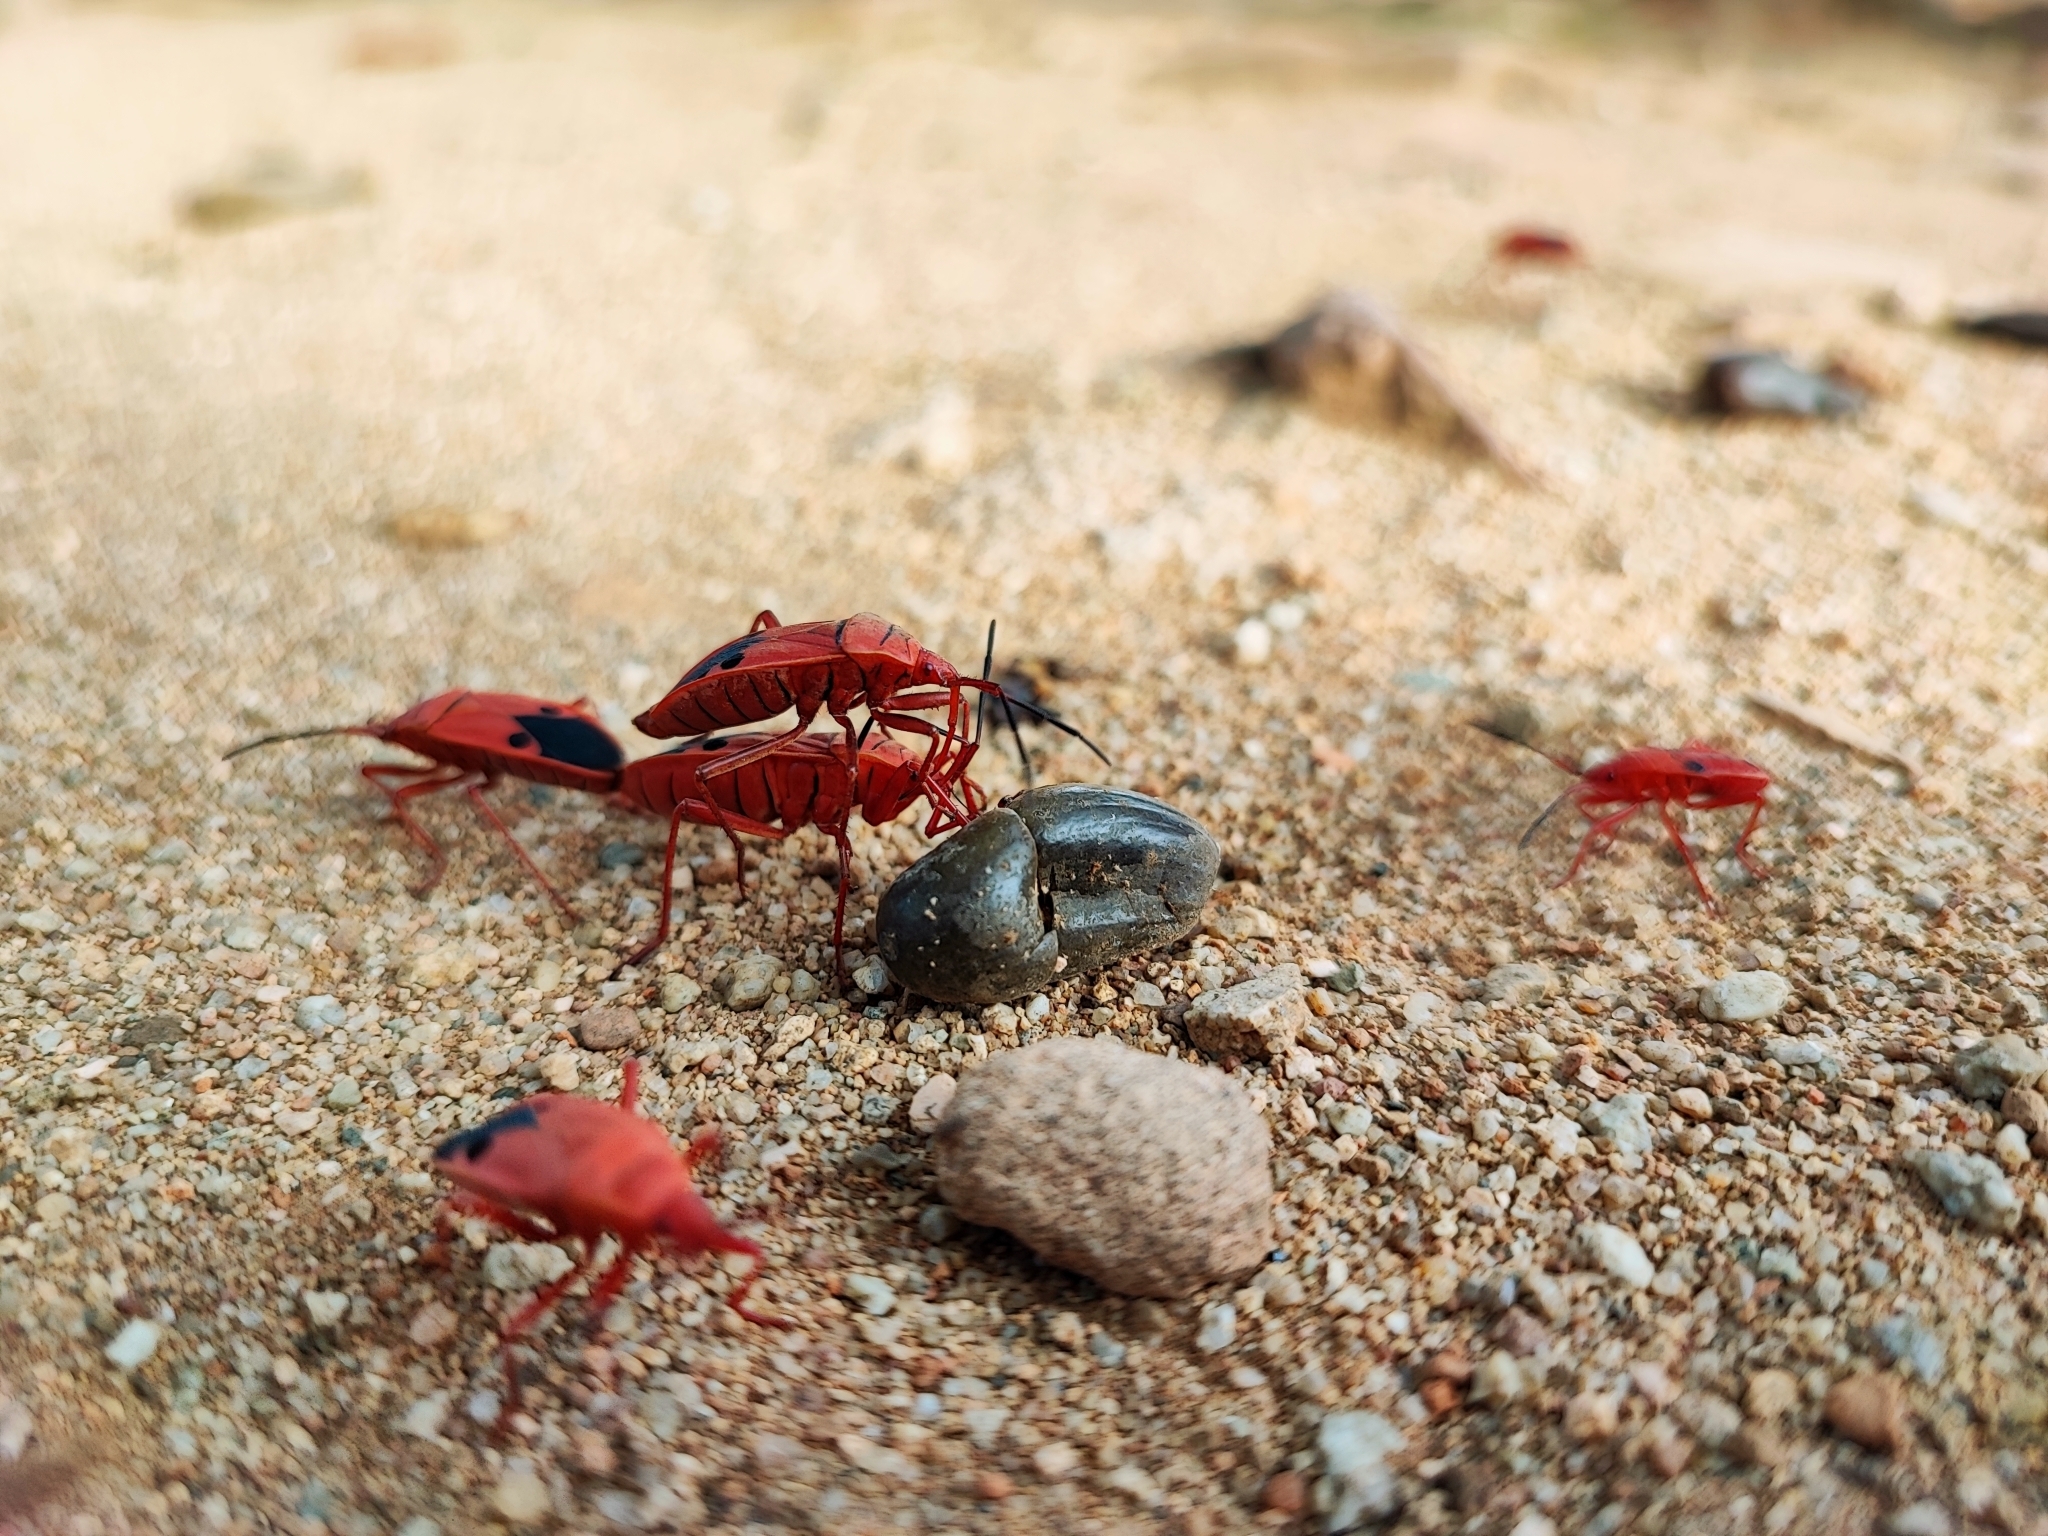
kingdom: Animalia
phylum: Arthropoda
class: Insecta
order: Hemiptera
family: Pyrrhocoridae
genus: Probergrothius
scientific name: Probergrothius nigricornis
